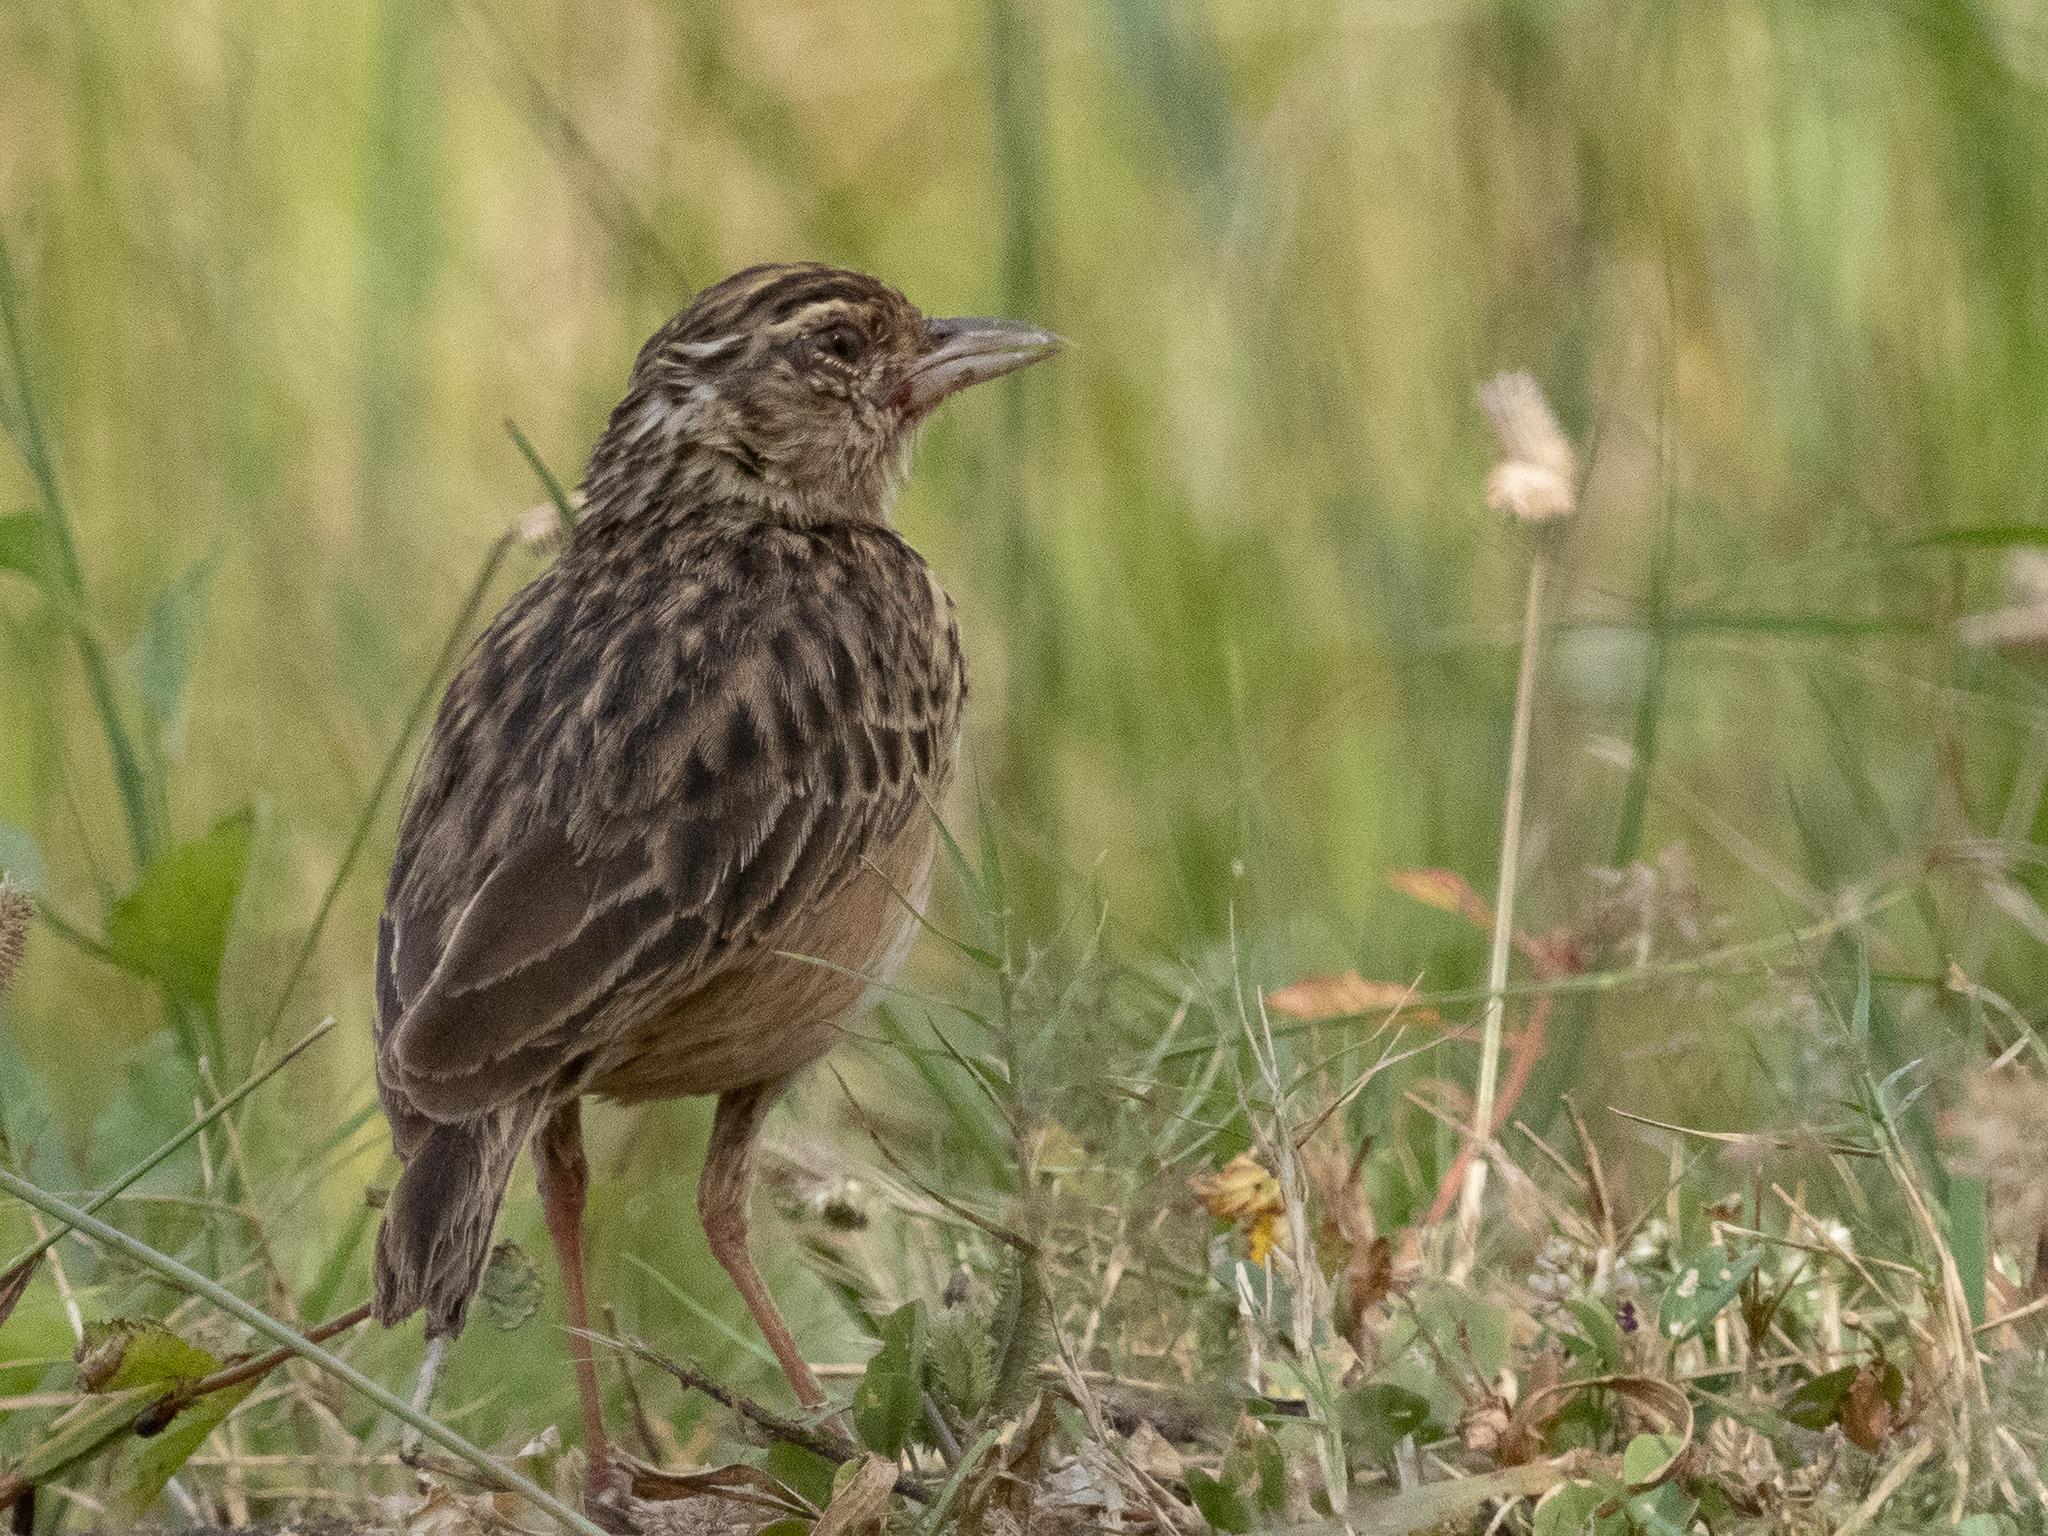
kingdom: Animalia
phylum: Chordata
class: Aves
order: Passeriformes
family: Alaudidae
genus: Mirafra
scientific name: Mirafra affinis
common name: Jerdon's bushlark
